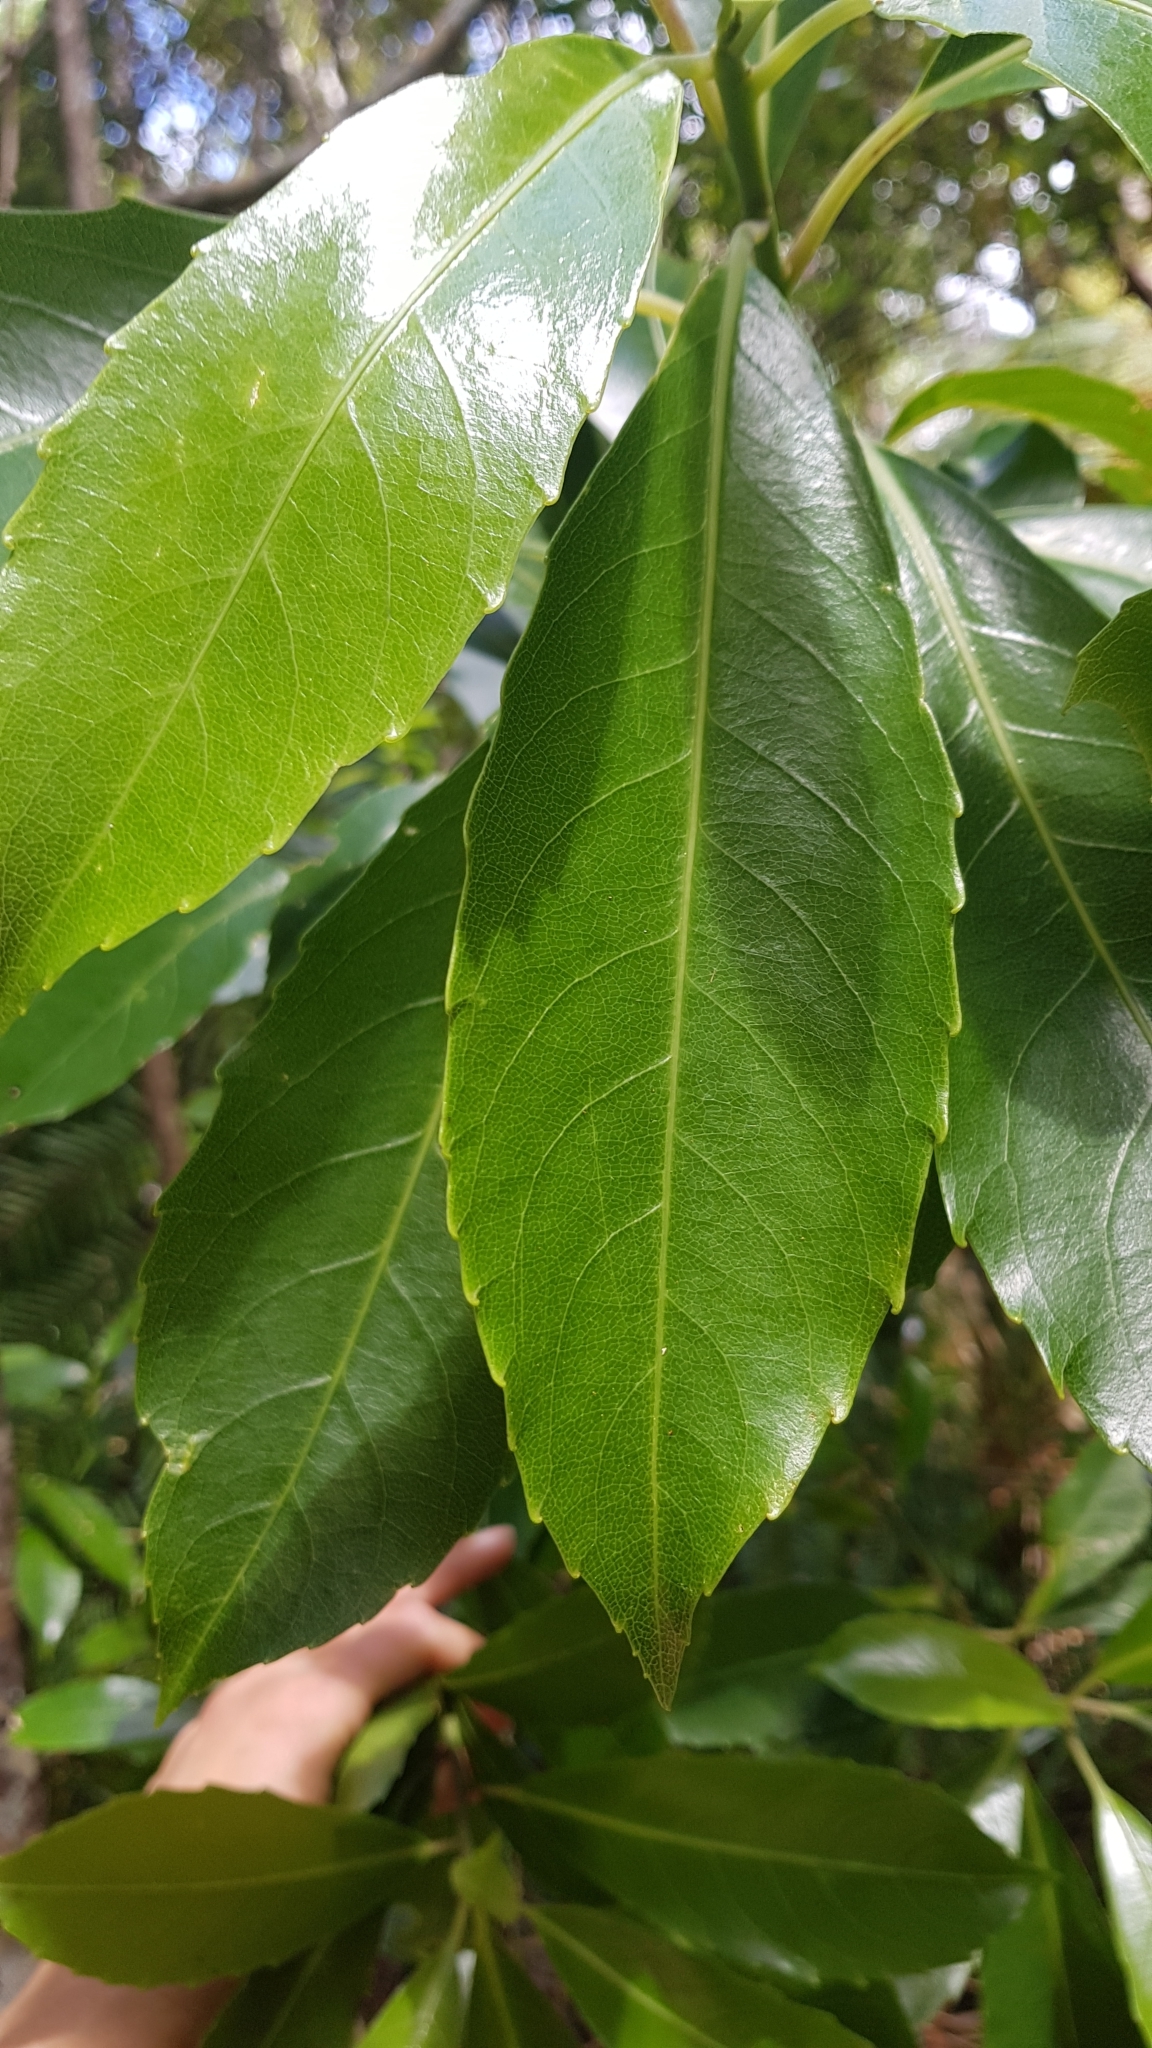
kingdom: Plantae
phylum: Tracheophyta
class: Magnoliopsida
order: Malpighiales
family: Violaceae
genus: Melicytus
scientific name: Melicytus macrophyllus
